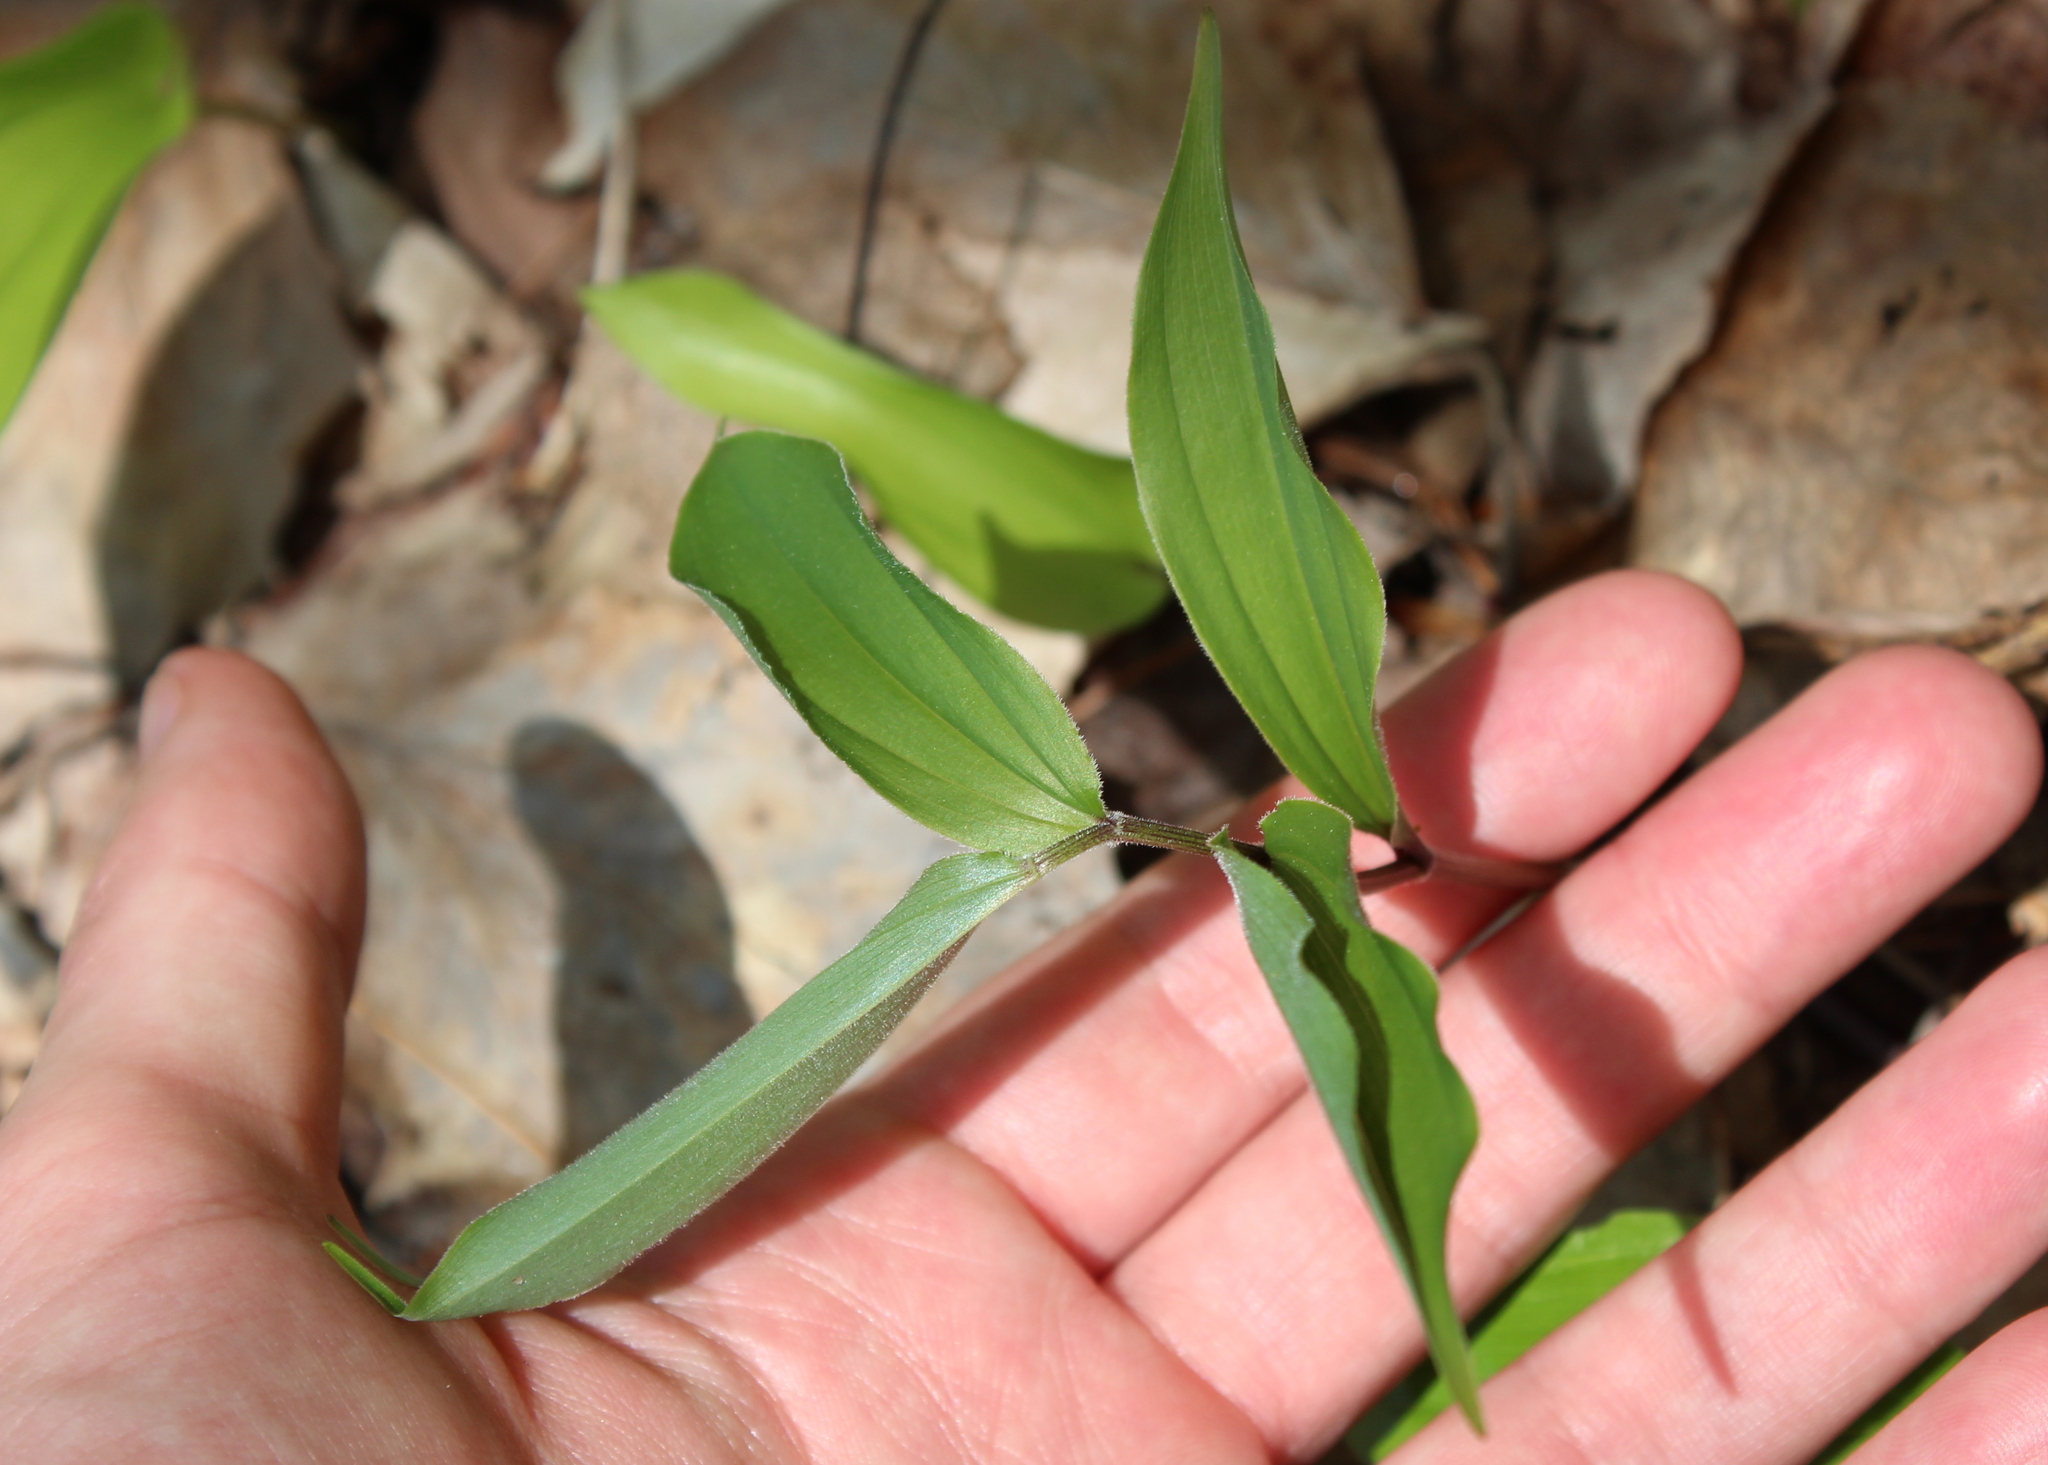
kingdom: Plantae
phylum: Tracheophyta
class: Liliopsida
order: Asparagales
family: Asparagaceae
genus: Maianthemum
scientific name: Maianthemum racemosum
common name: False spikenard
